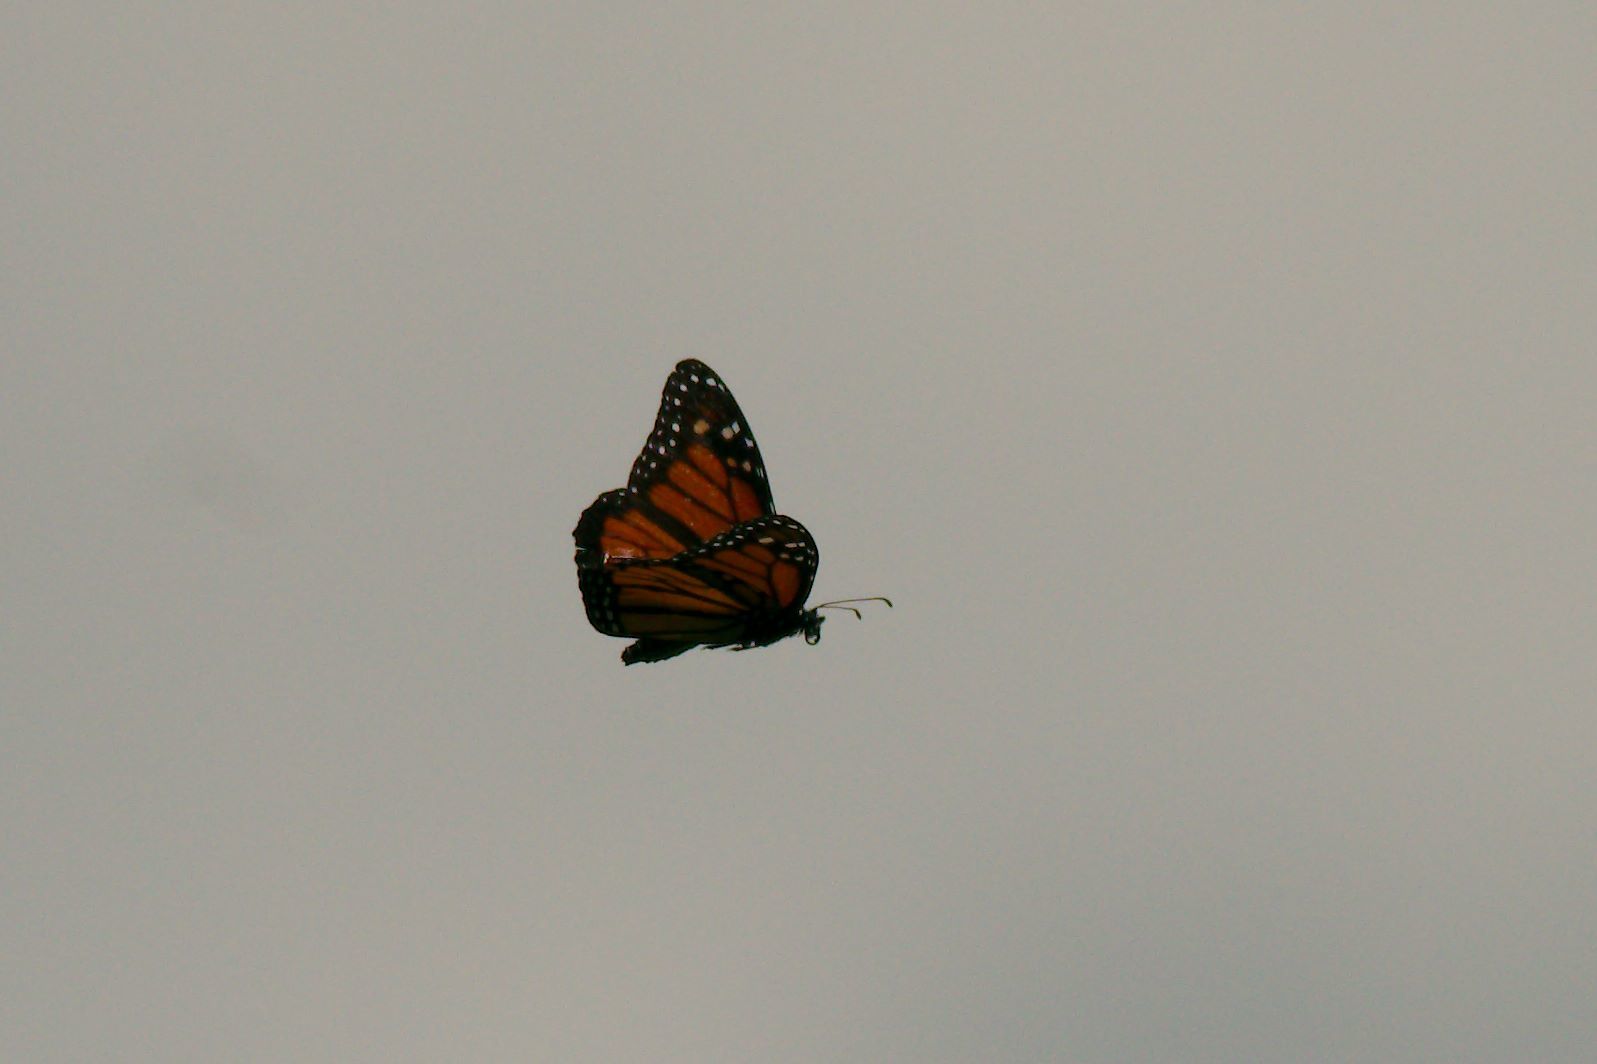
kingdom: Animalia
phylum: Arthropoda
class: Insecta
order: Lepidoptera
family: Nymphalidae
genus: Danaus
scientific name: Danaus plexippus
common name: Monarch
